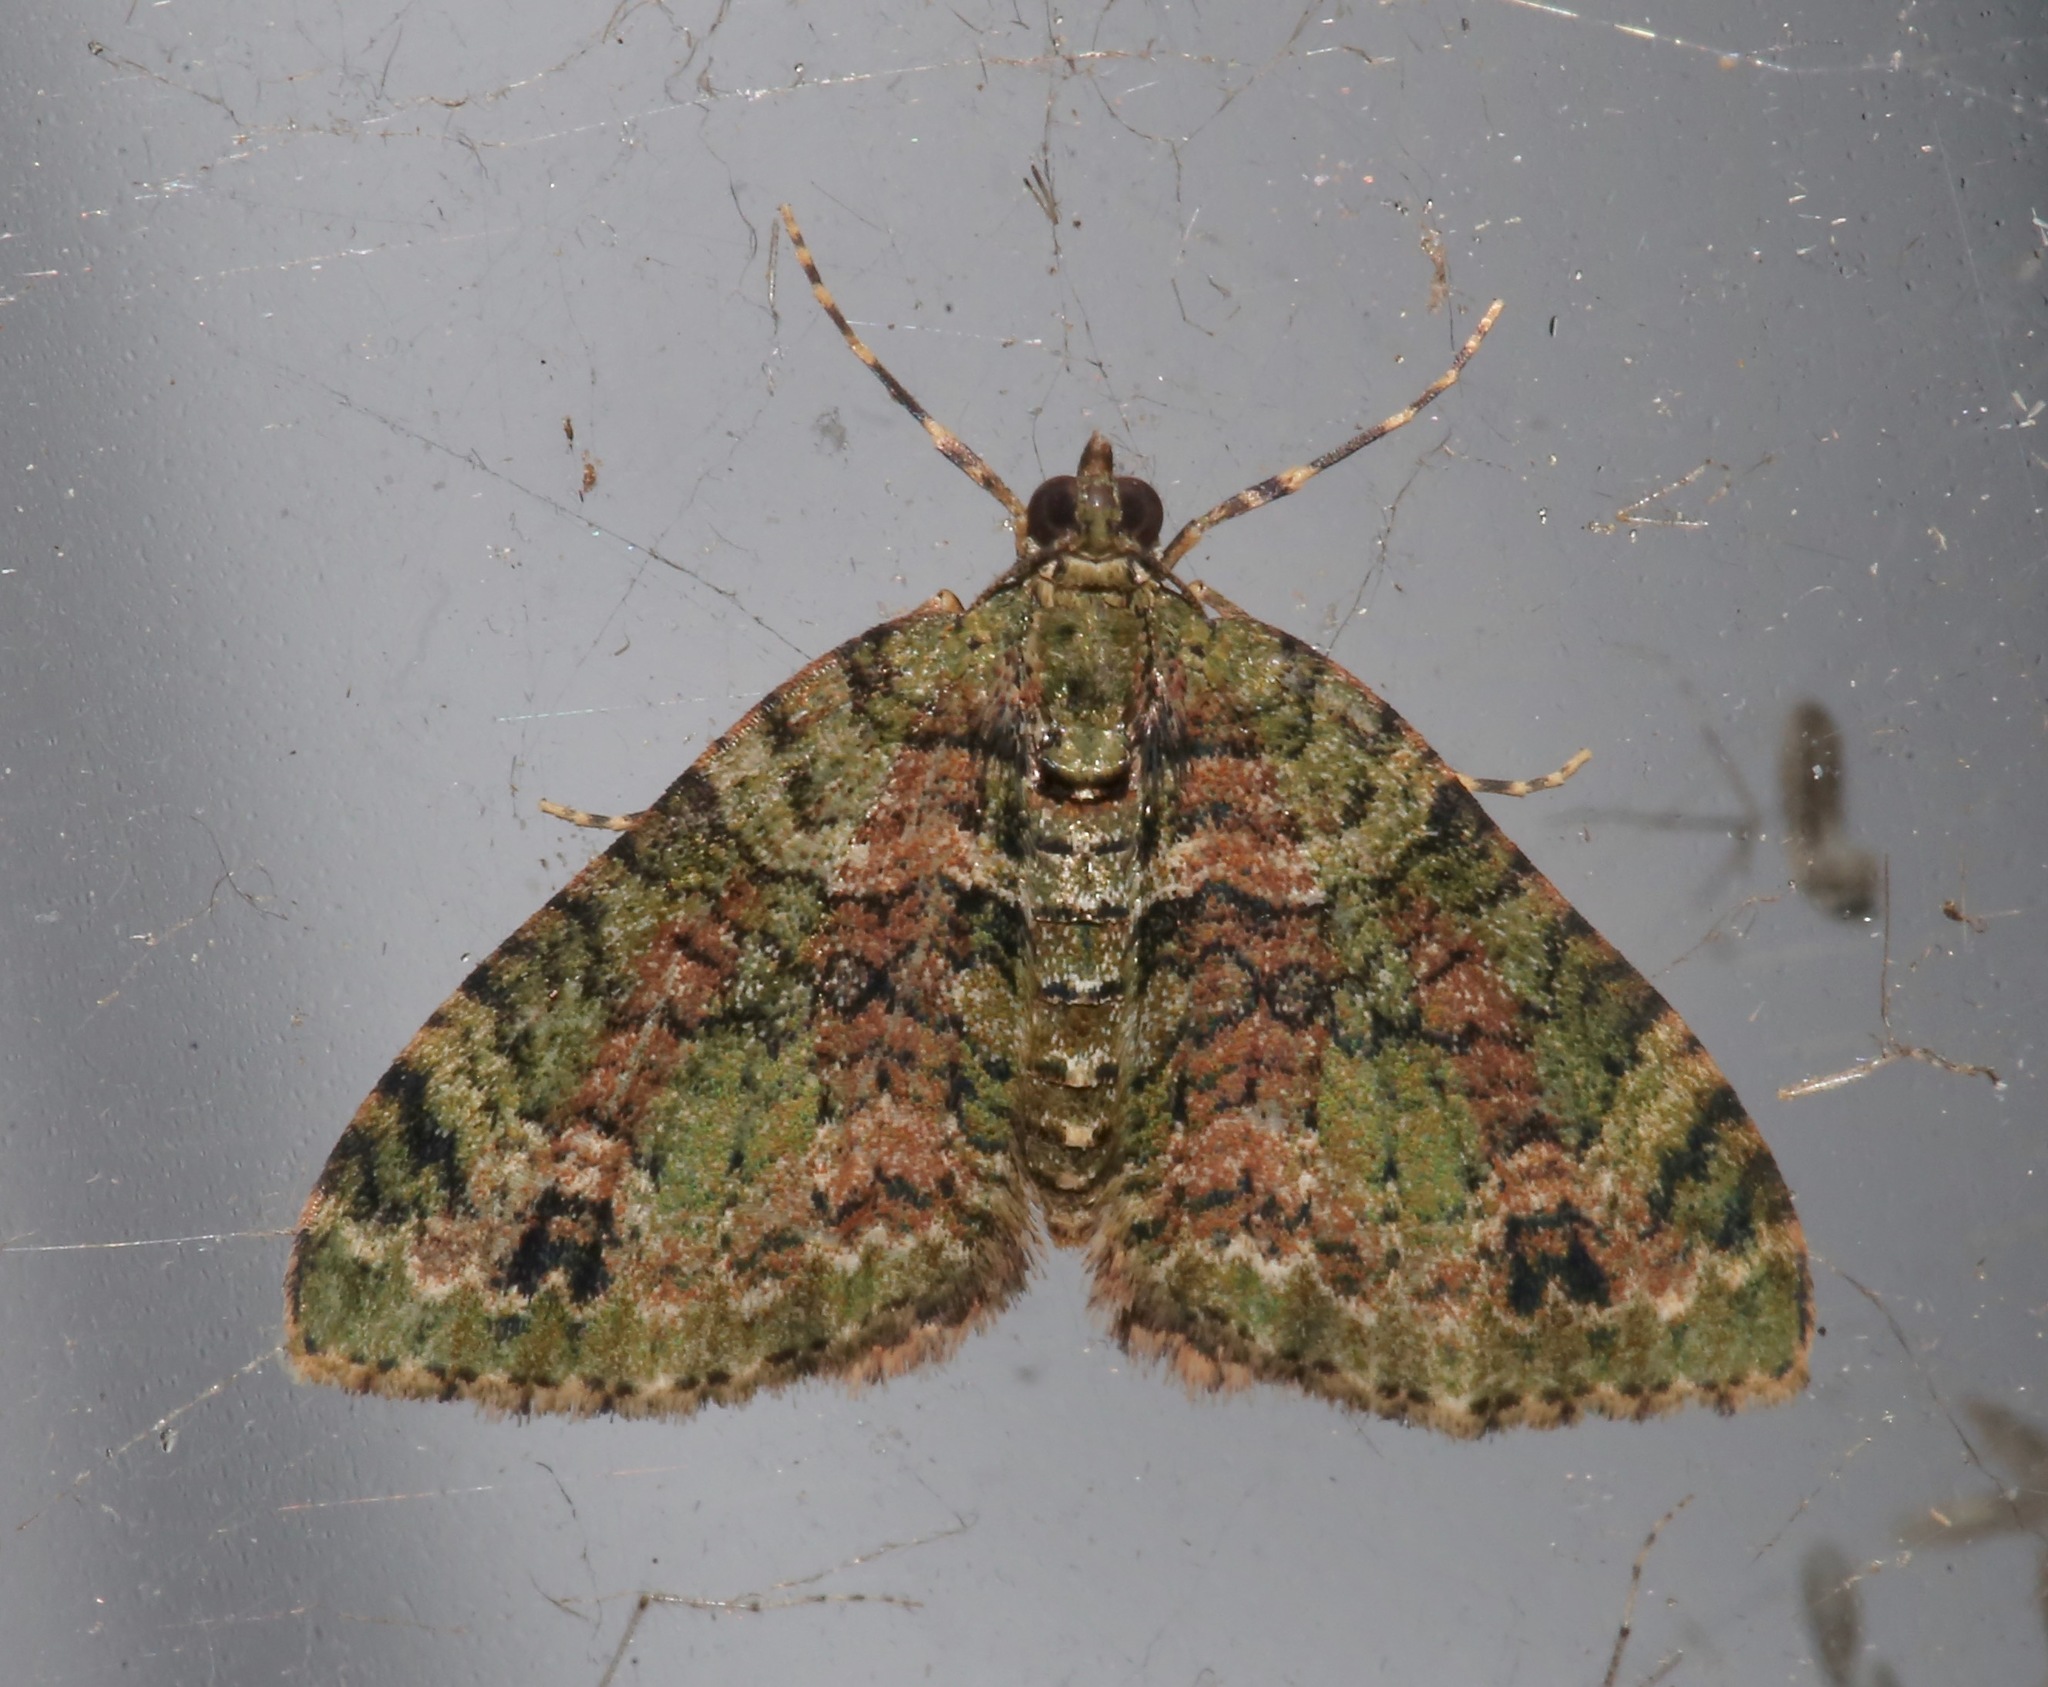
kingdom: Animalia
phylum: Arthropoda
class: Insecta
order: Lepidoptera
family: Geometridae
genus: Hammaptera
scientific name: Hammaptera parinotata
